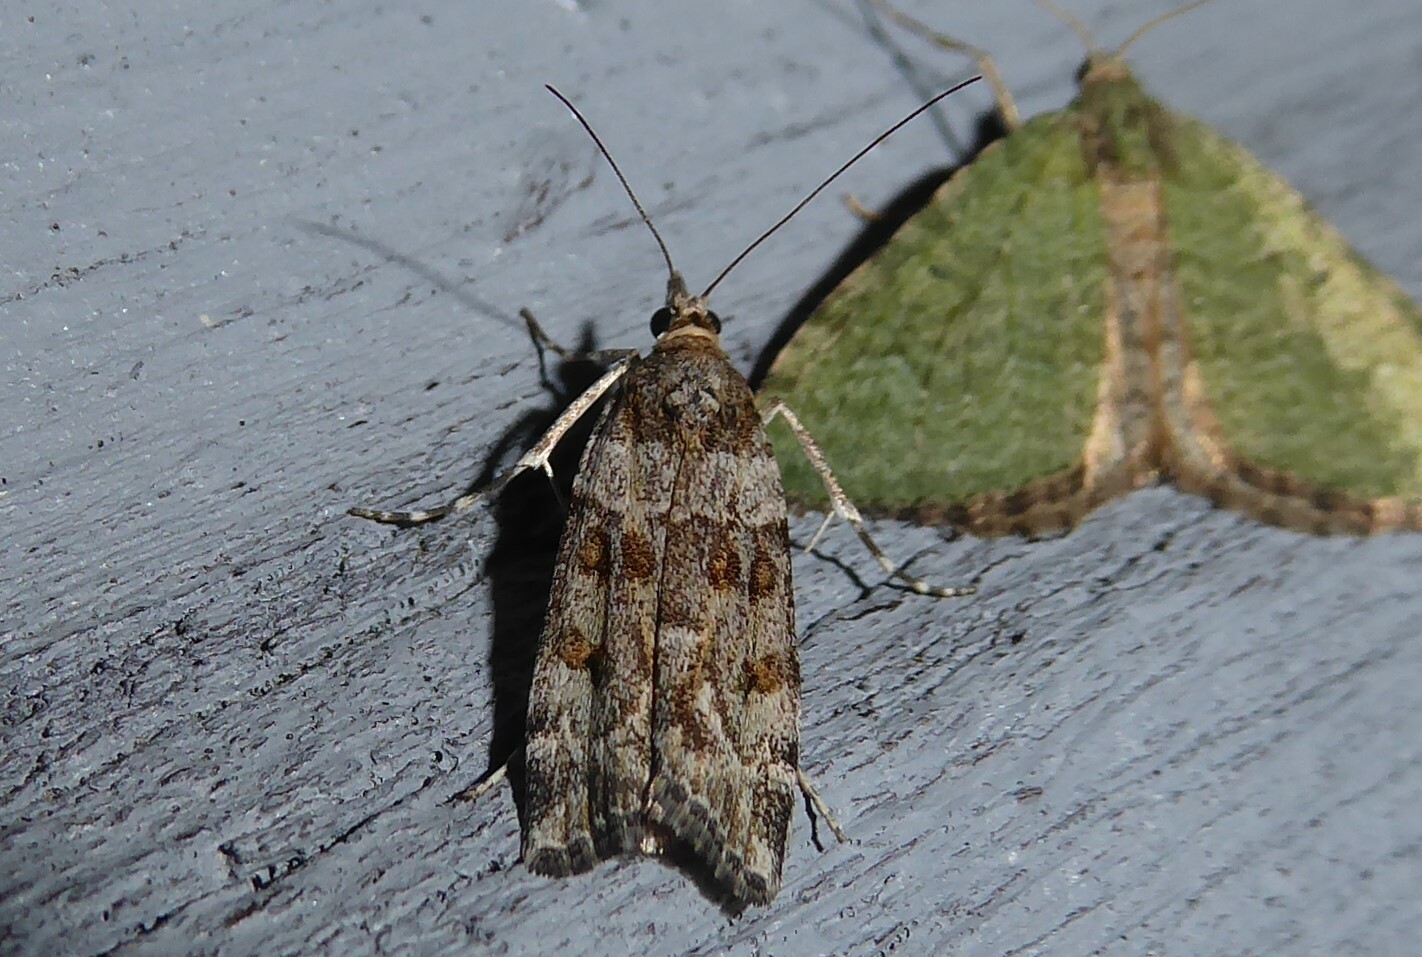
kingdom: Animalia
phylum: Arthropoda
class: Insecta
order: Lepidoptera
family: Crambidae
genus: Scoparia
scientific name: Scoparia tetracycla
